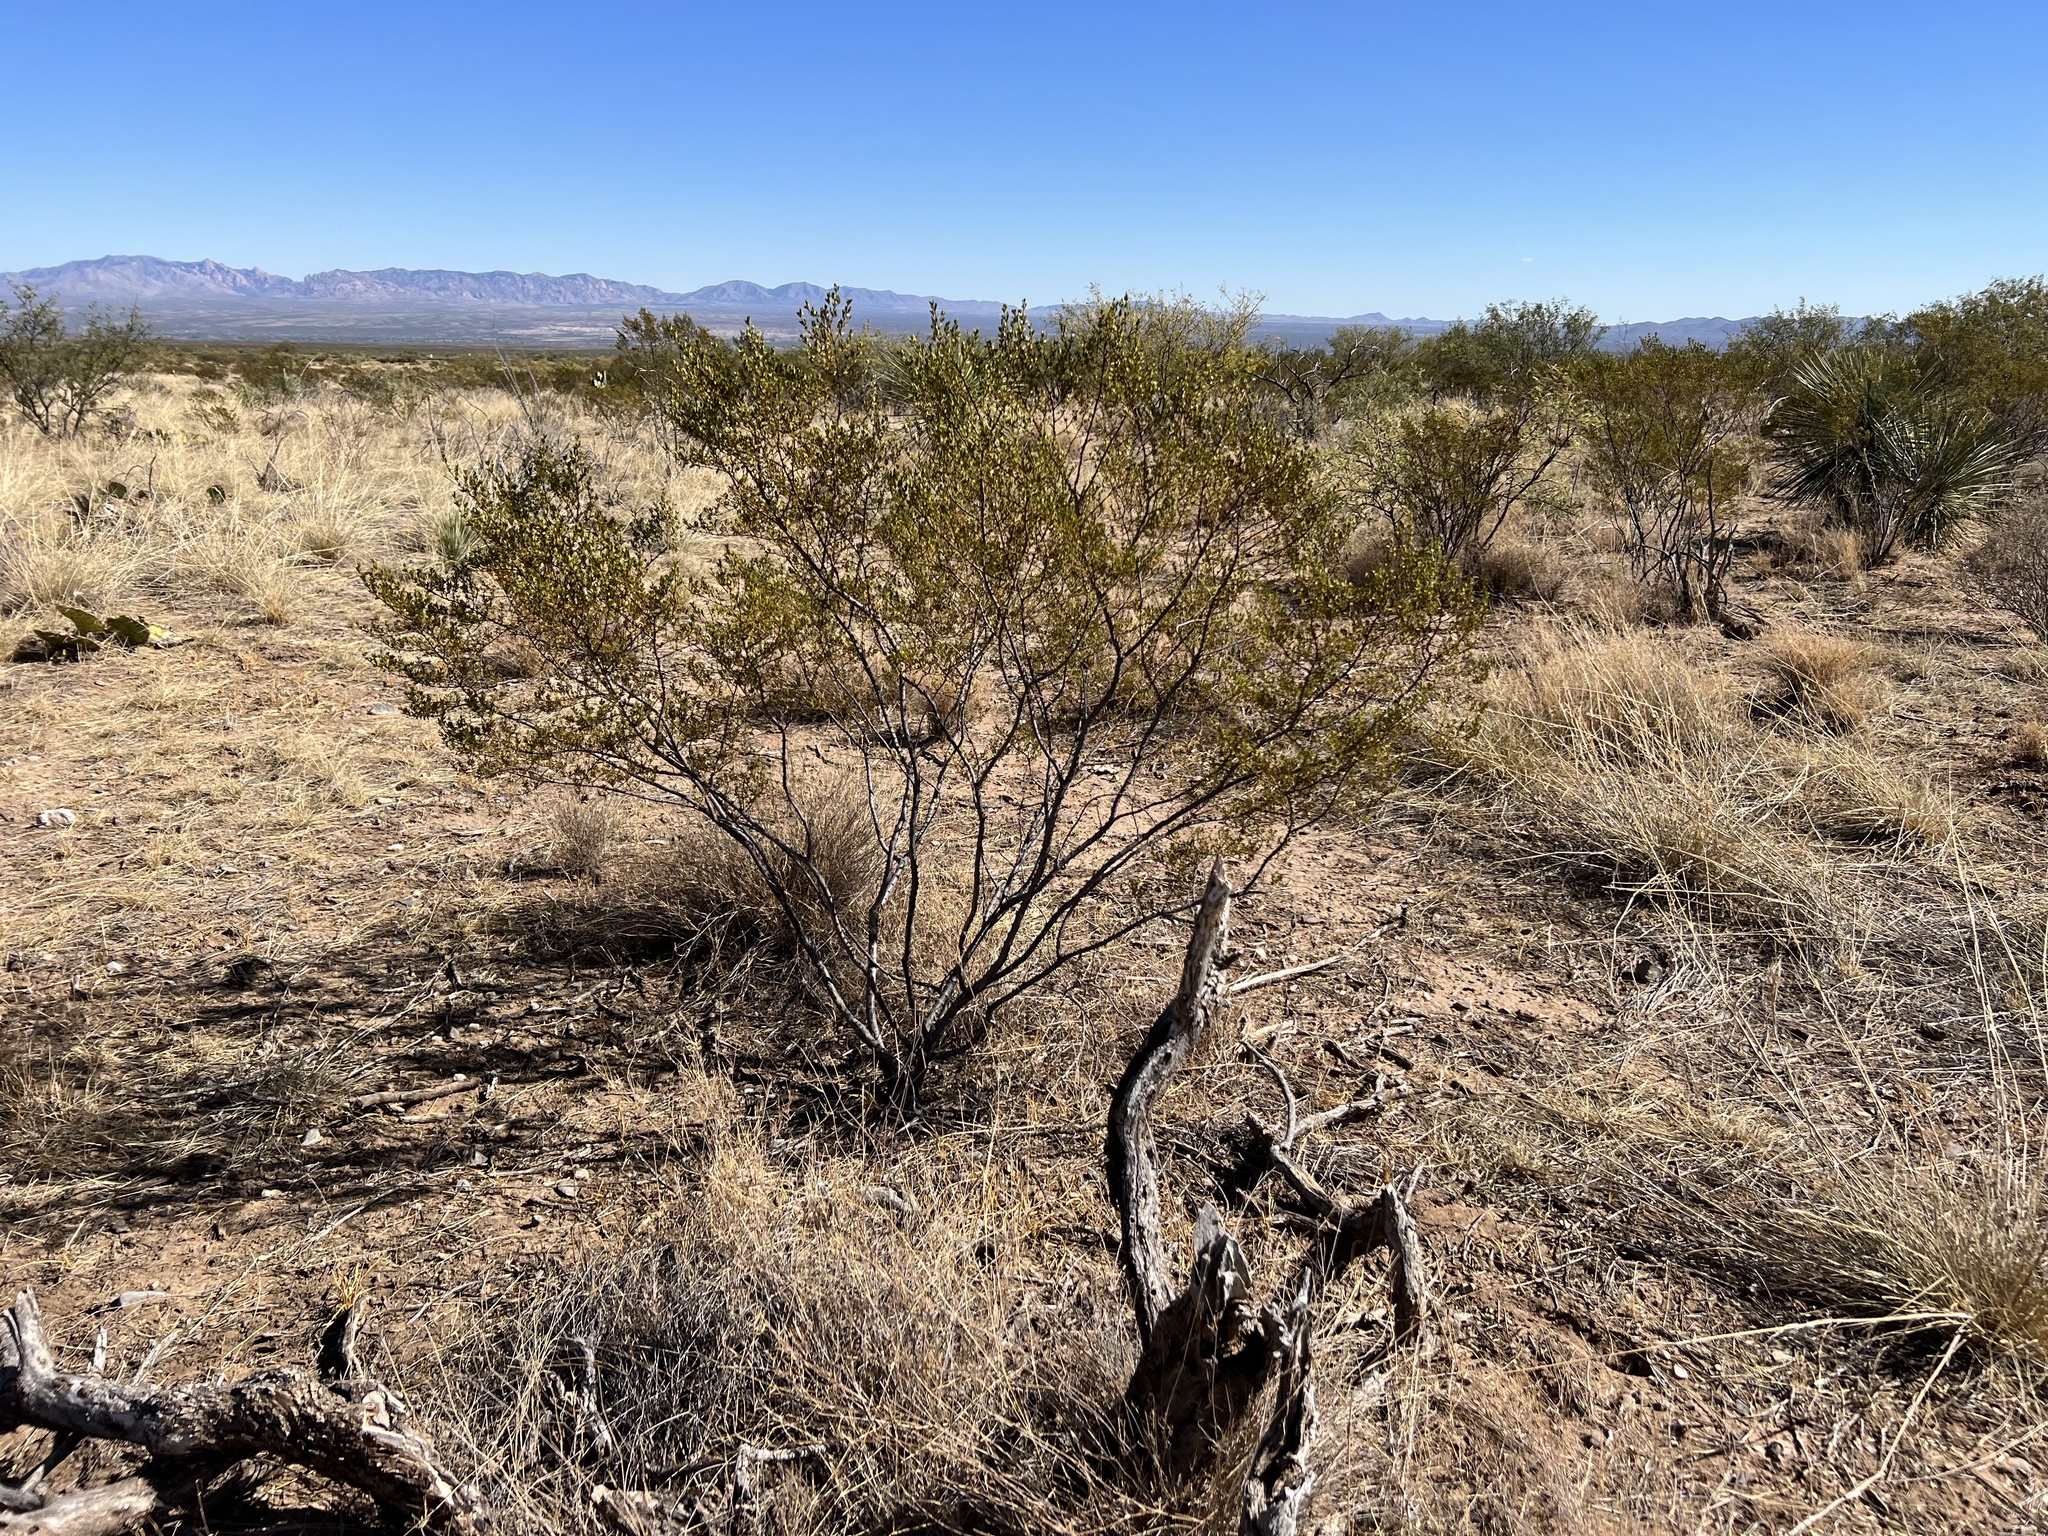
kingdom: Plantae
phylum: Tracheophyta
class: Magnoliopsida
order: Zygophyllales
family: Zygophyllaceae
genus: Larrea
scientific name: Larrea tridentata
